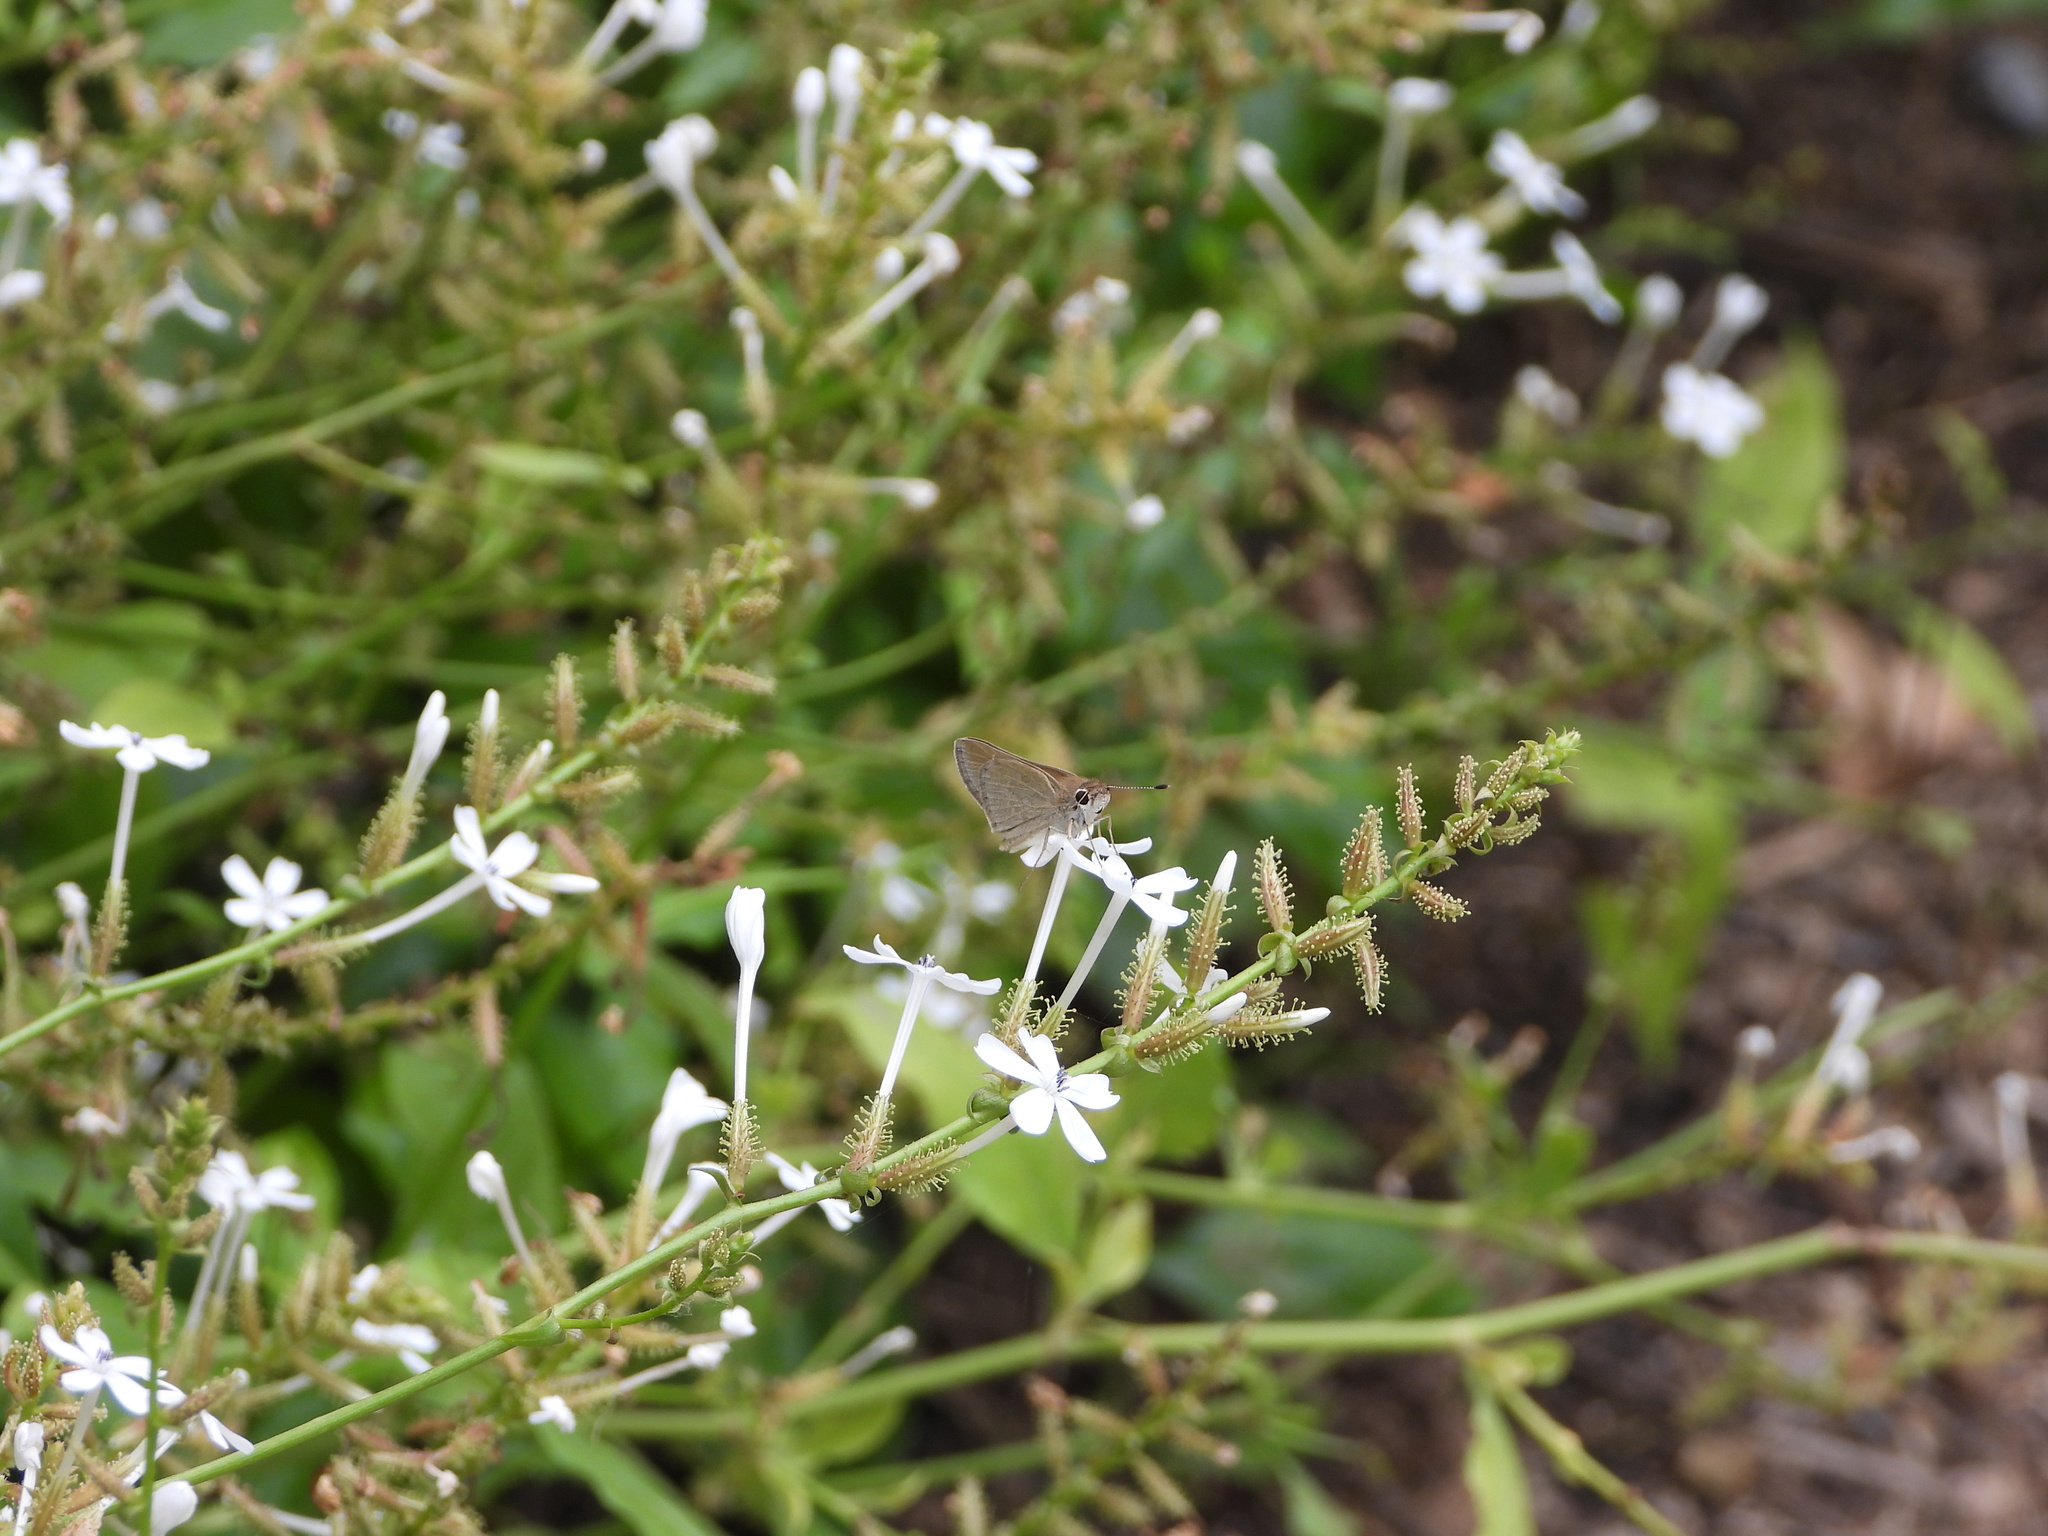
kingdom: Animalia
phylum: Arthropoda
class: Insecta
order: Lepidoptera
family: Hesperiidae
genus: Lerodea
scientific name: Lerodea eufala
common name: Eufala skipper
